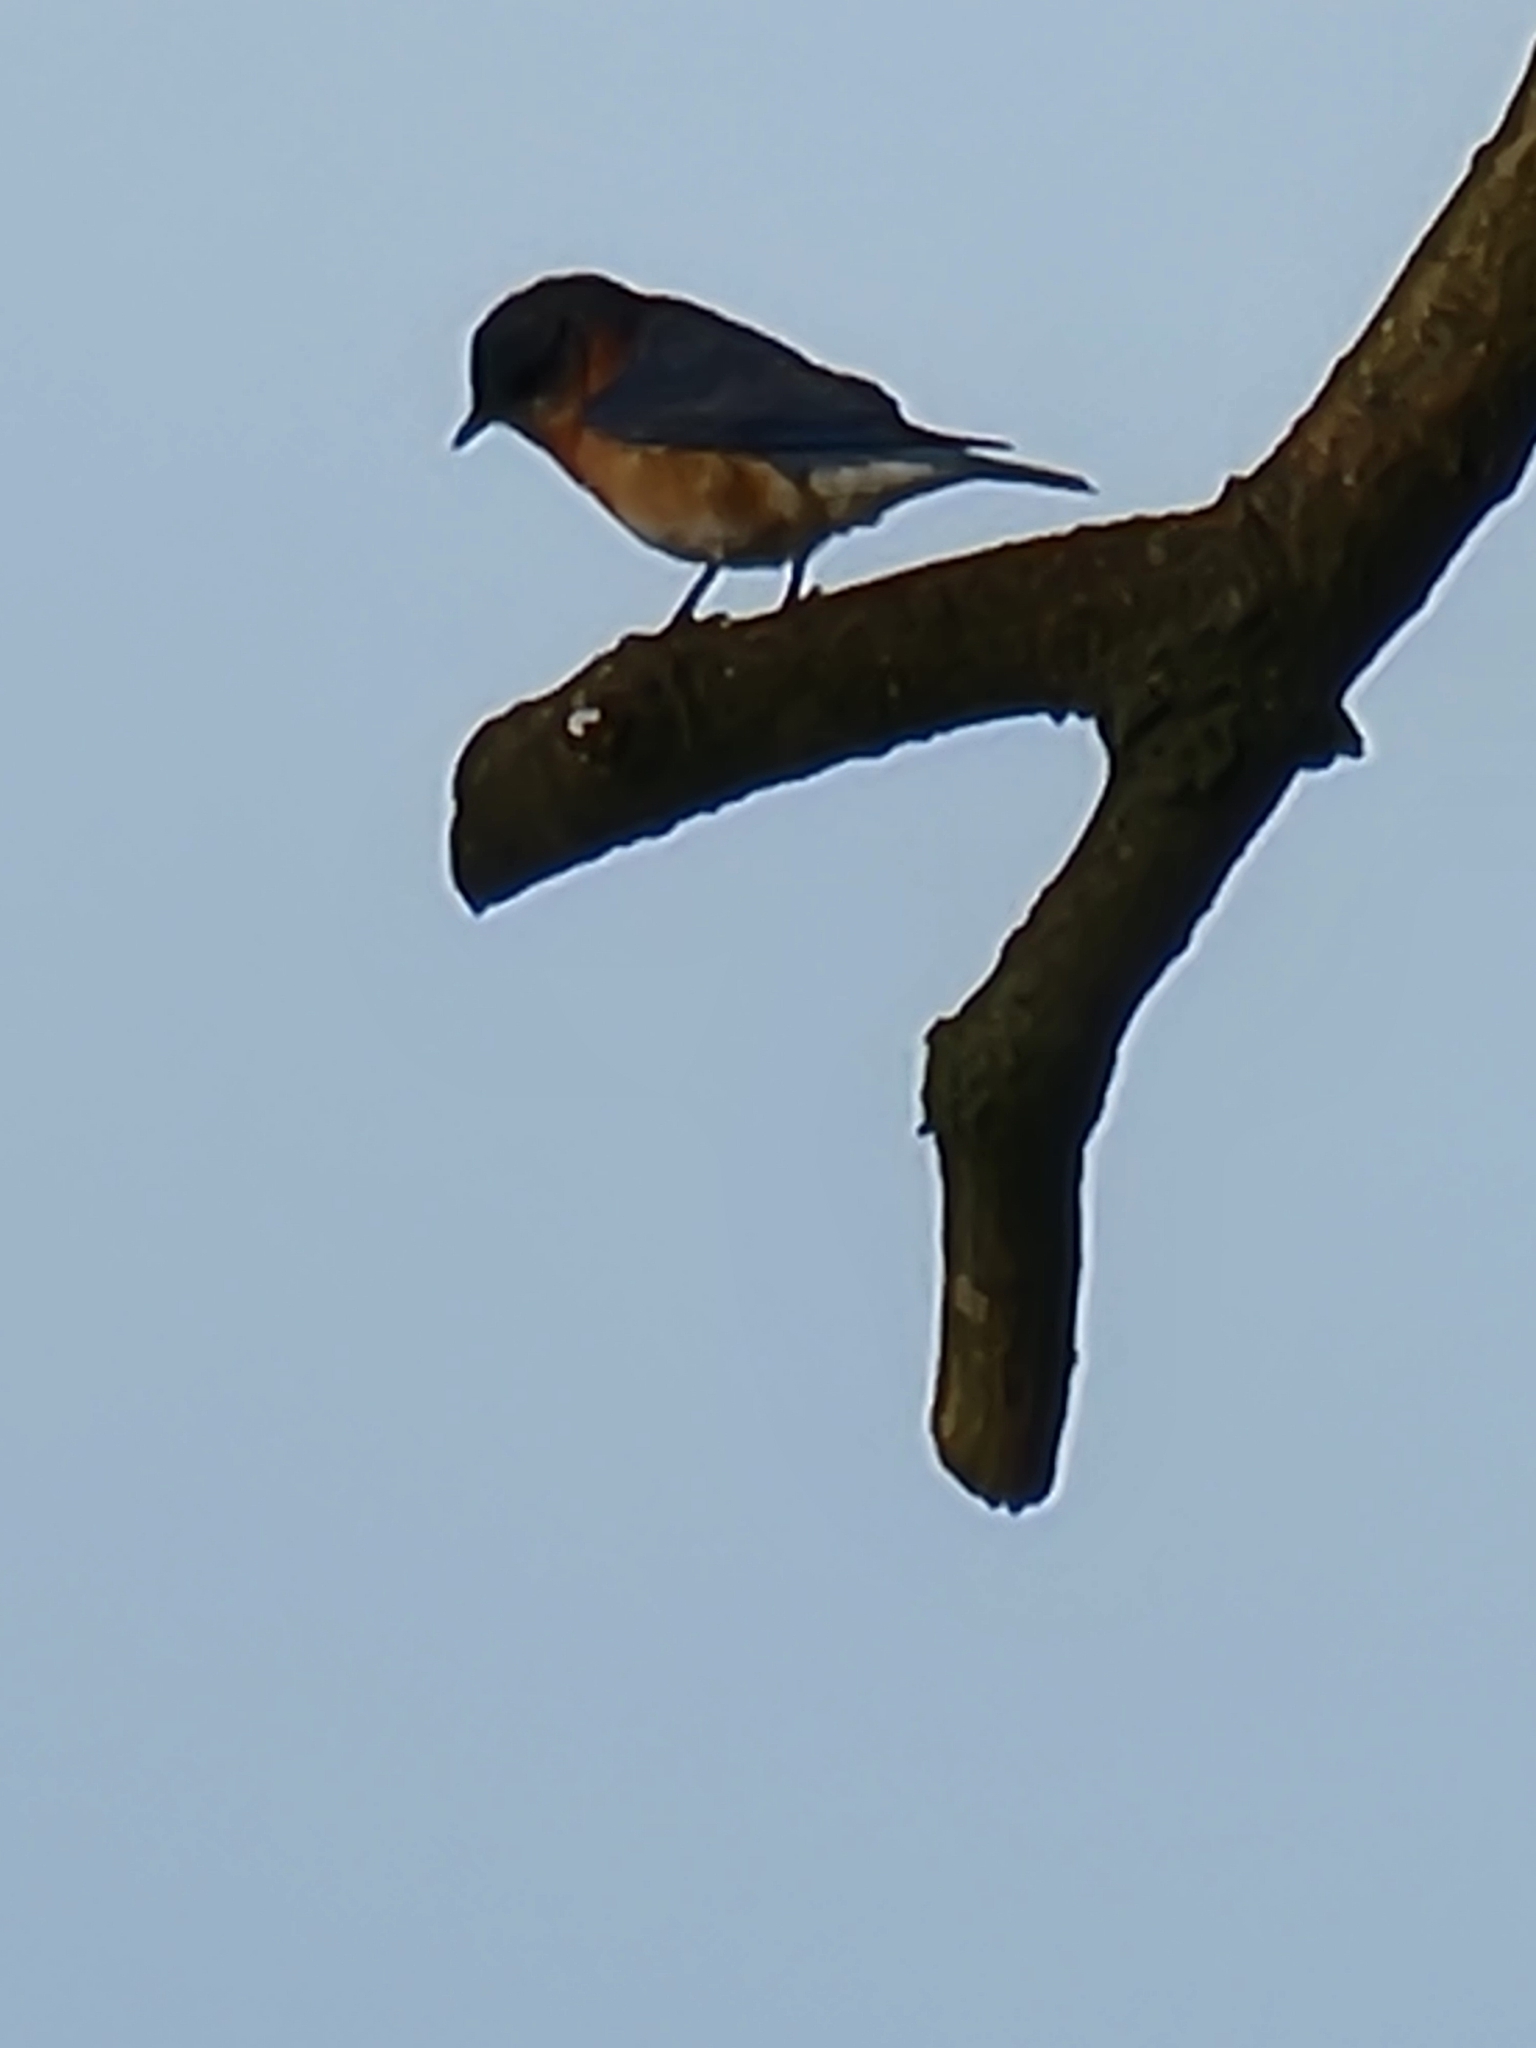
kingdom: Animalia
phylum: Chordata
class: Aves
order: Passeriformes
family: Turdidae
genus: Sialia
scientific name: Sialia sialis
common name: Eastern bluebird
